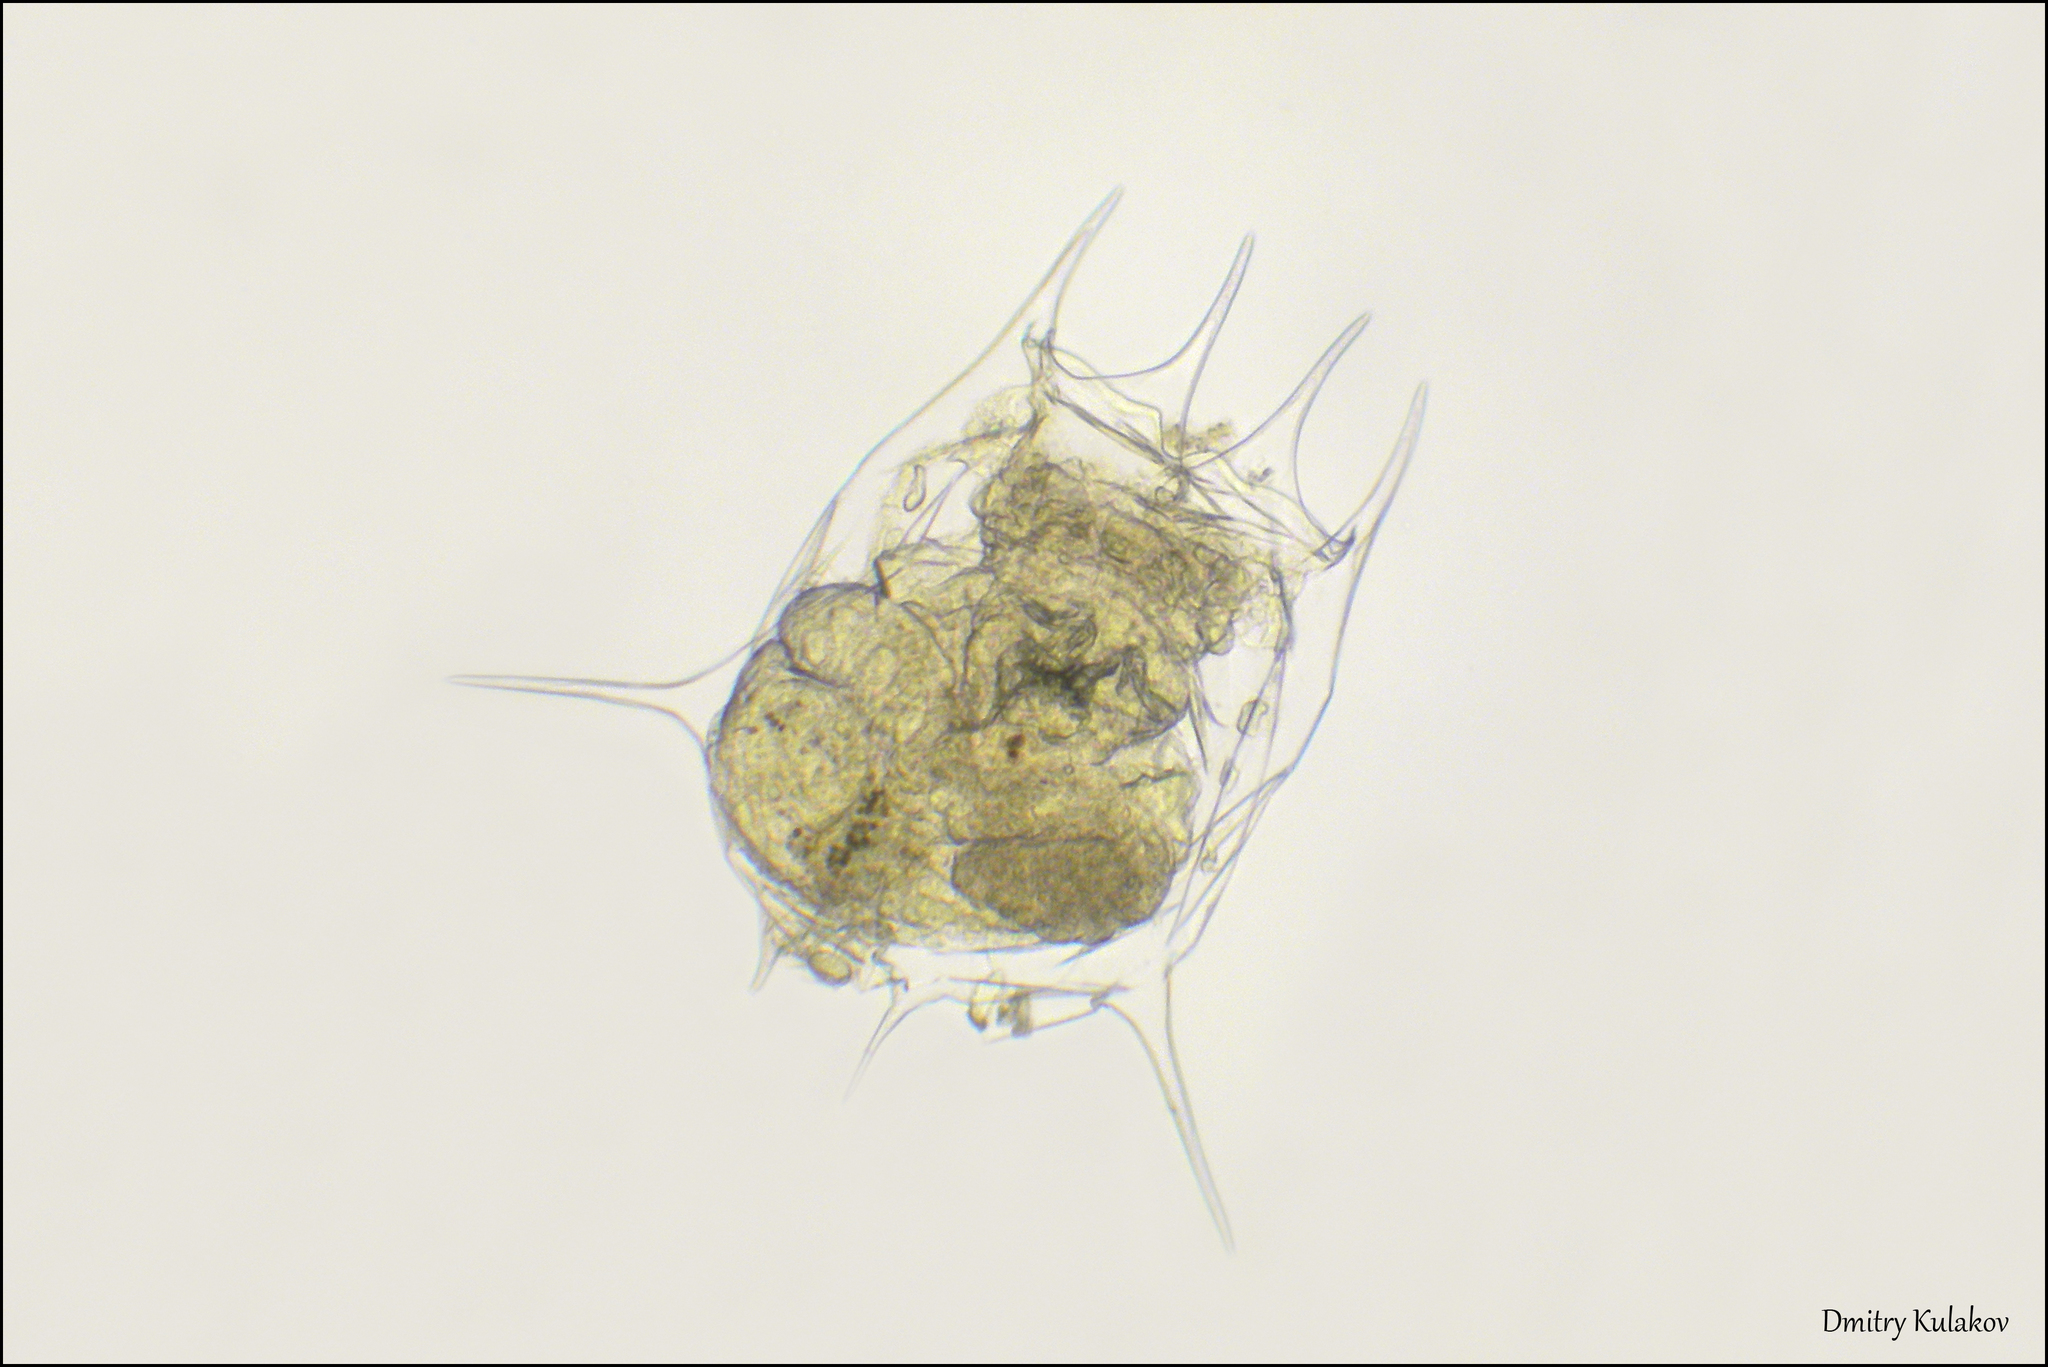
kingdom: Animalia
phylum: Rotifera
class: Eurotatoria
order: Ploima
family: Brachionidae
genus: Brachionus
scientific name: Brachionus calyciflorus
